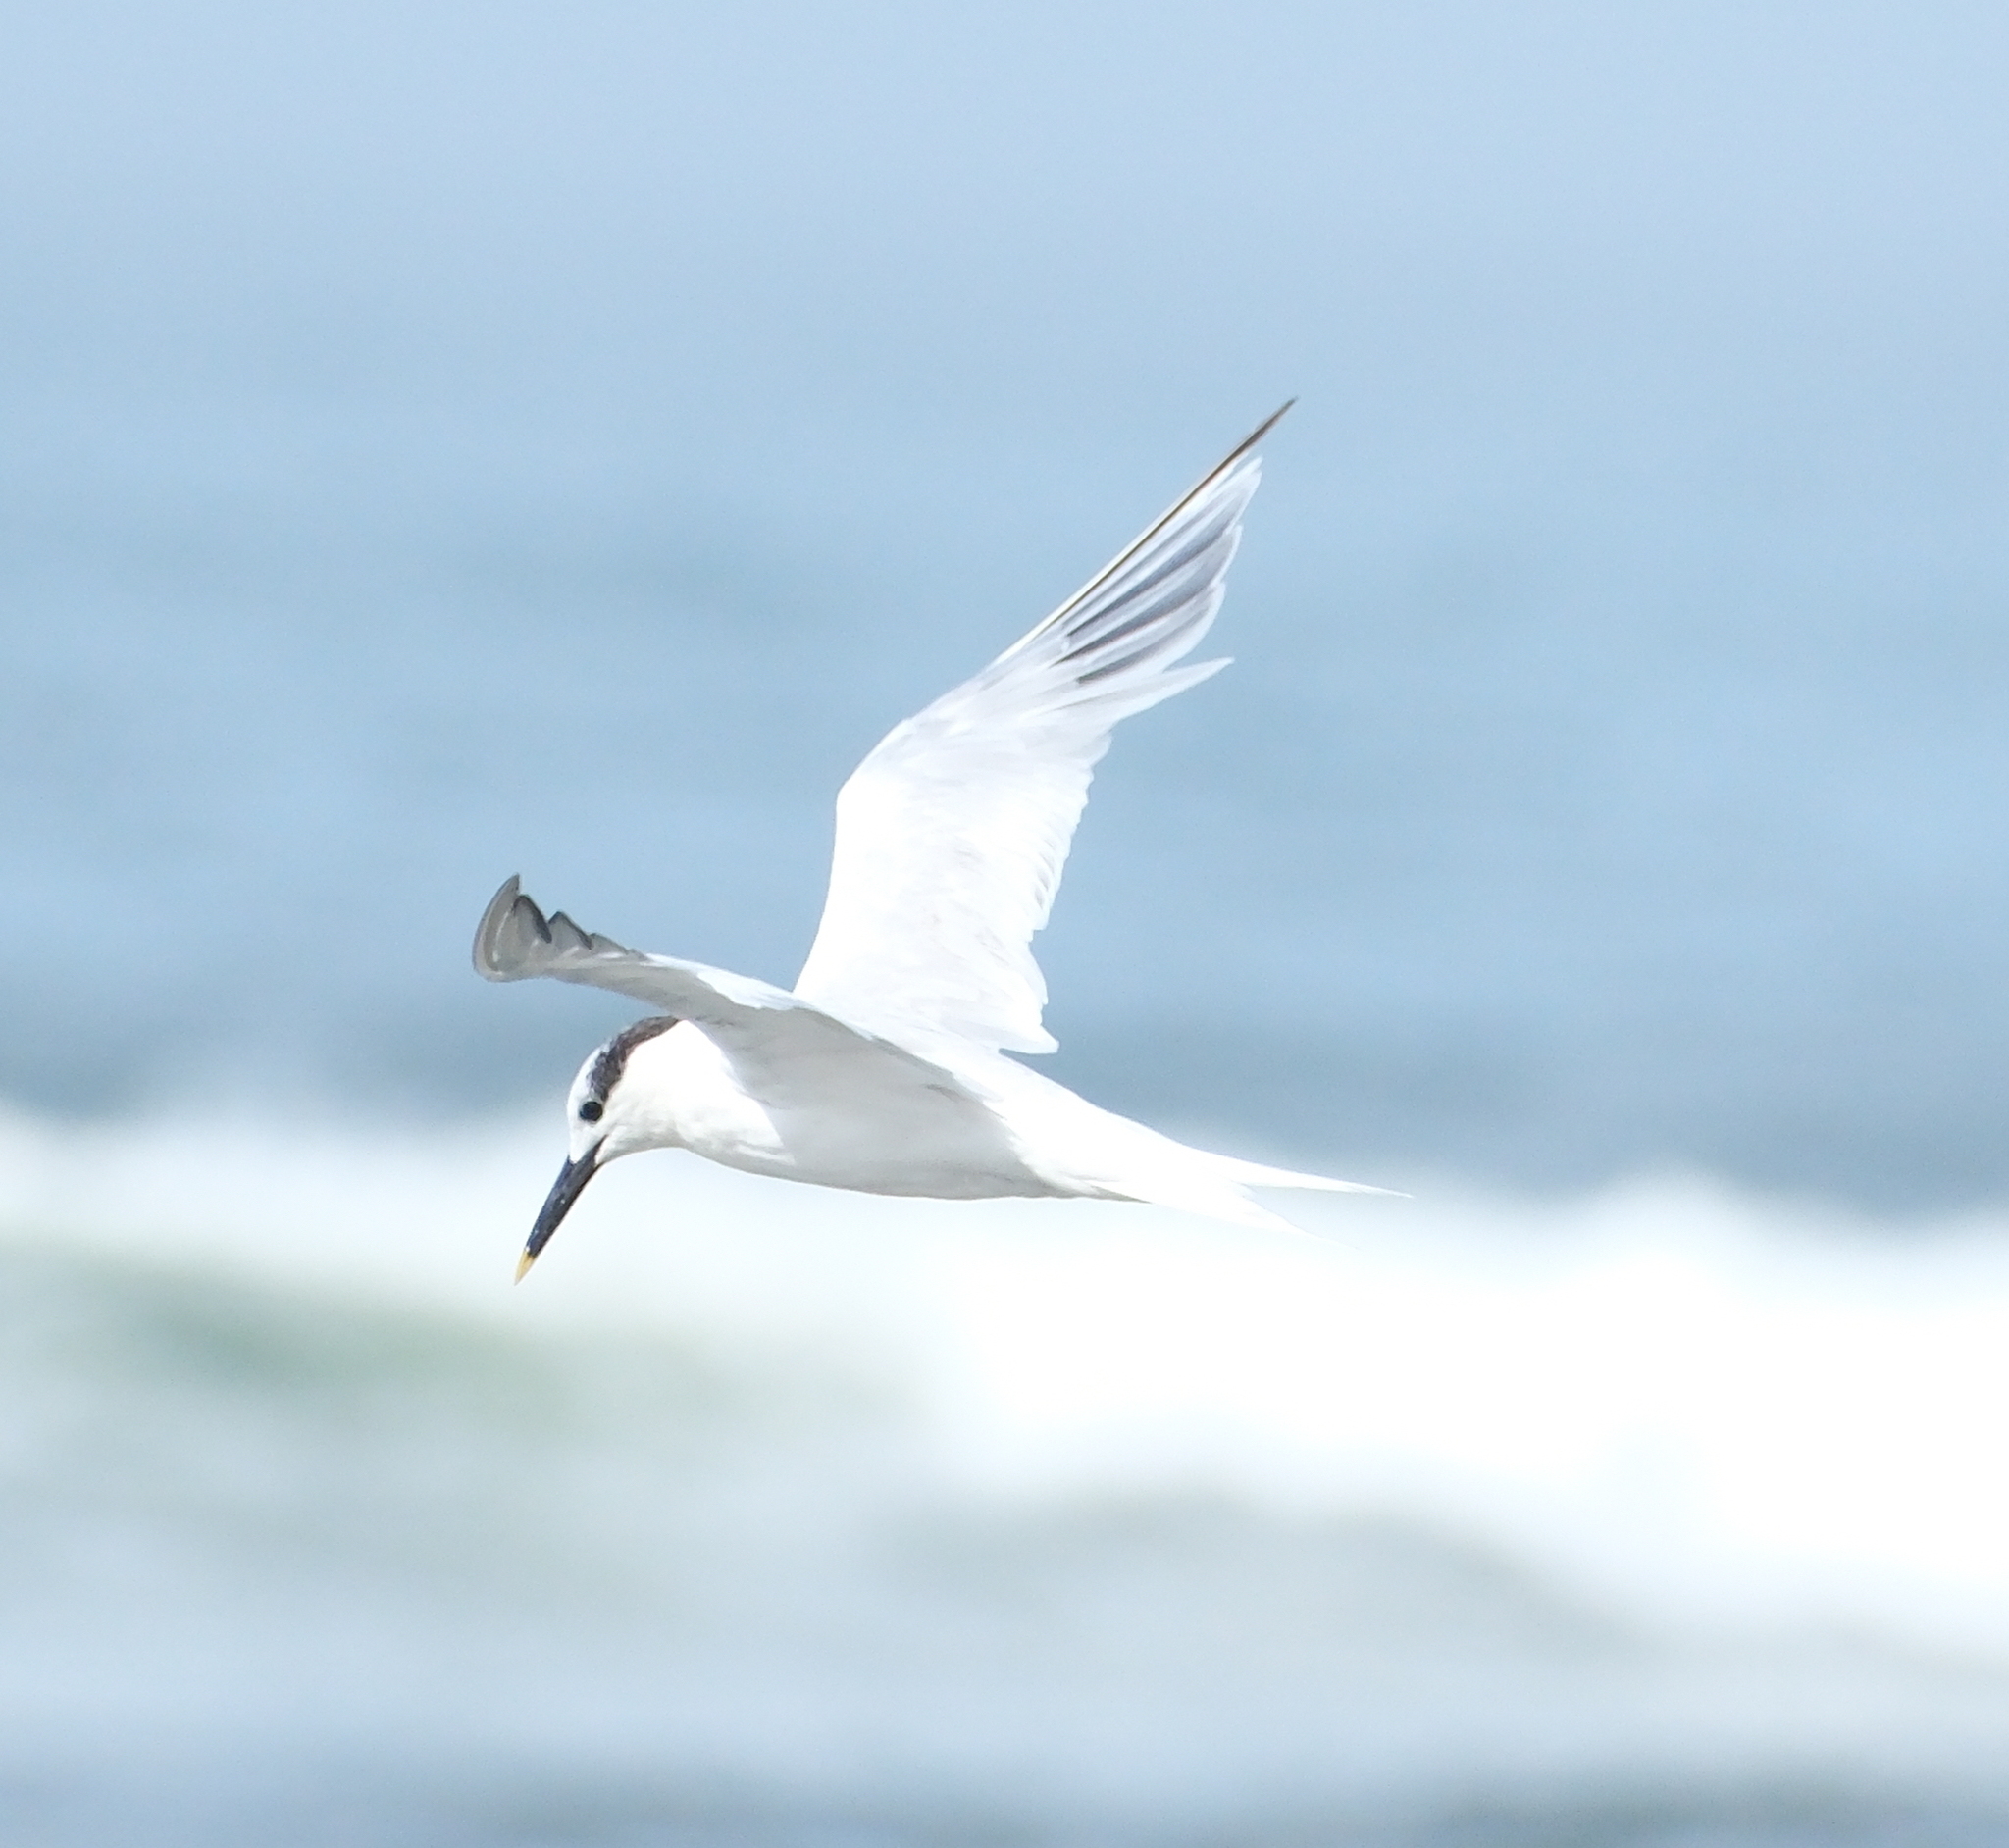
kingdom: Animalia
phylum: Chordata
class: Aves
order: Charadriiformes
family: Laridae
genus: Thalasseus
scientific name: Thalasseus sandvicensis
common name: Sandwich tern
